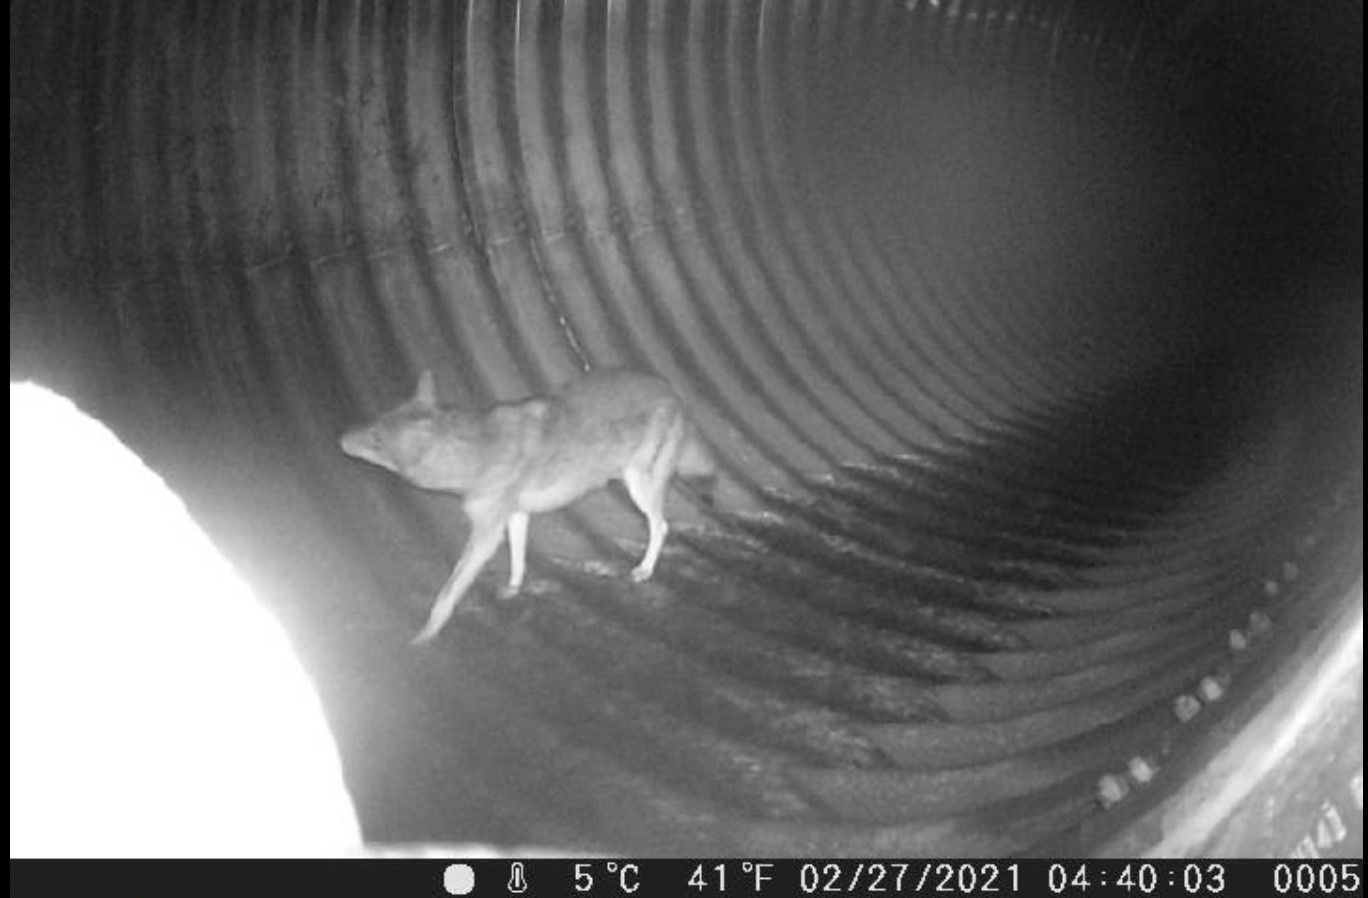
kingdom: Animalia
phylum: Chordata
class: Mammalia
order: Carnivora
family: Canidae
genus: Canis
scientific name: Canis latrans
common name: Coyote
